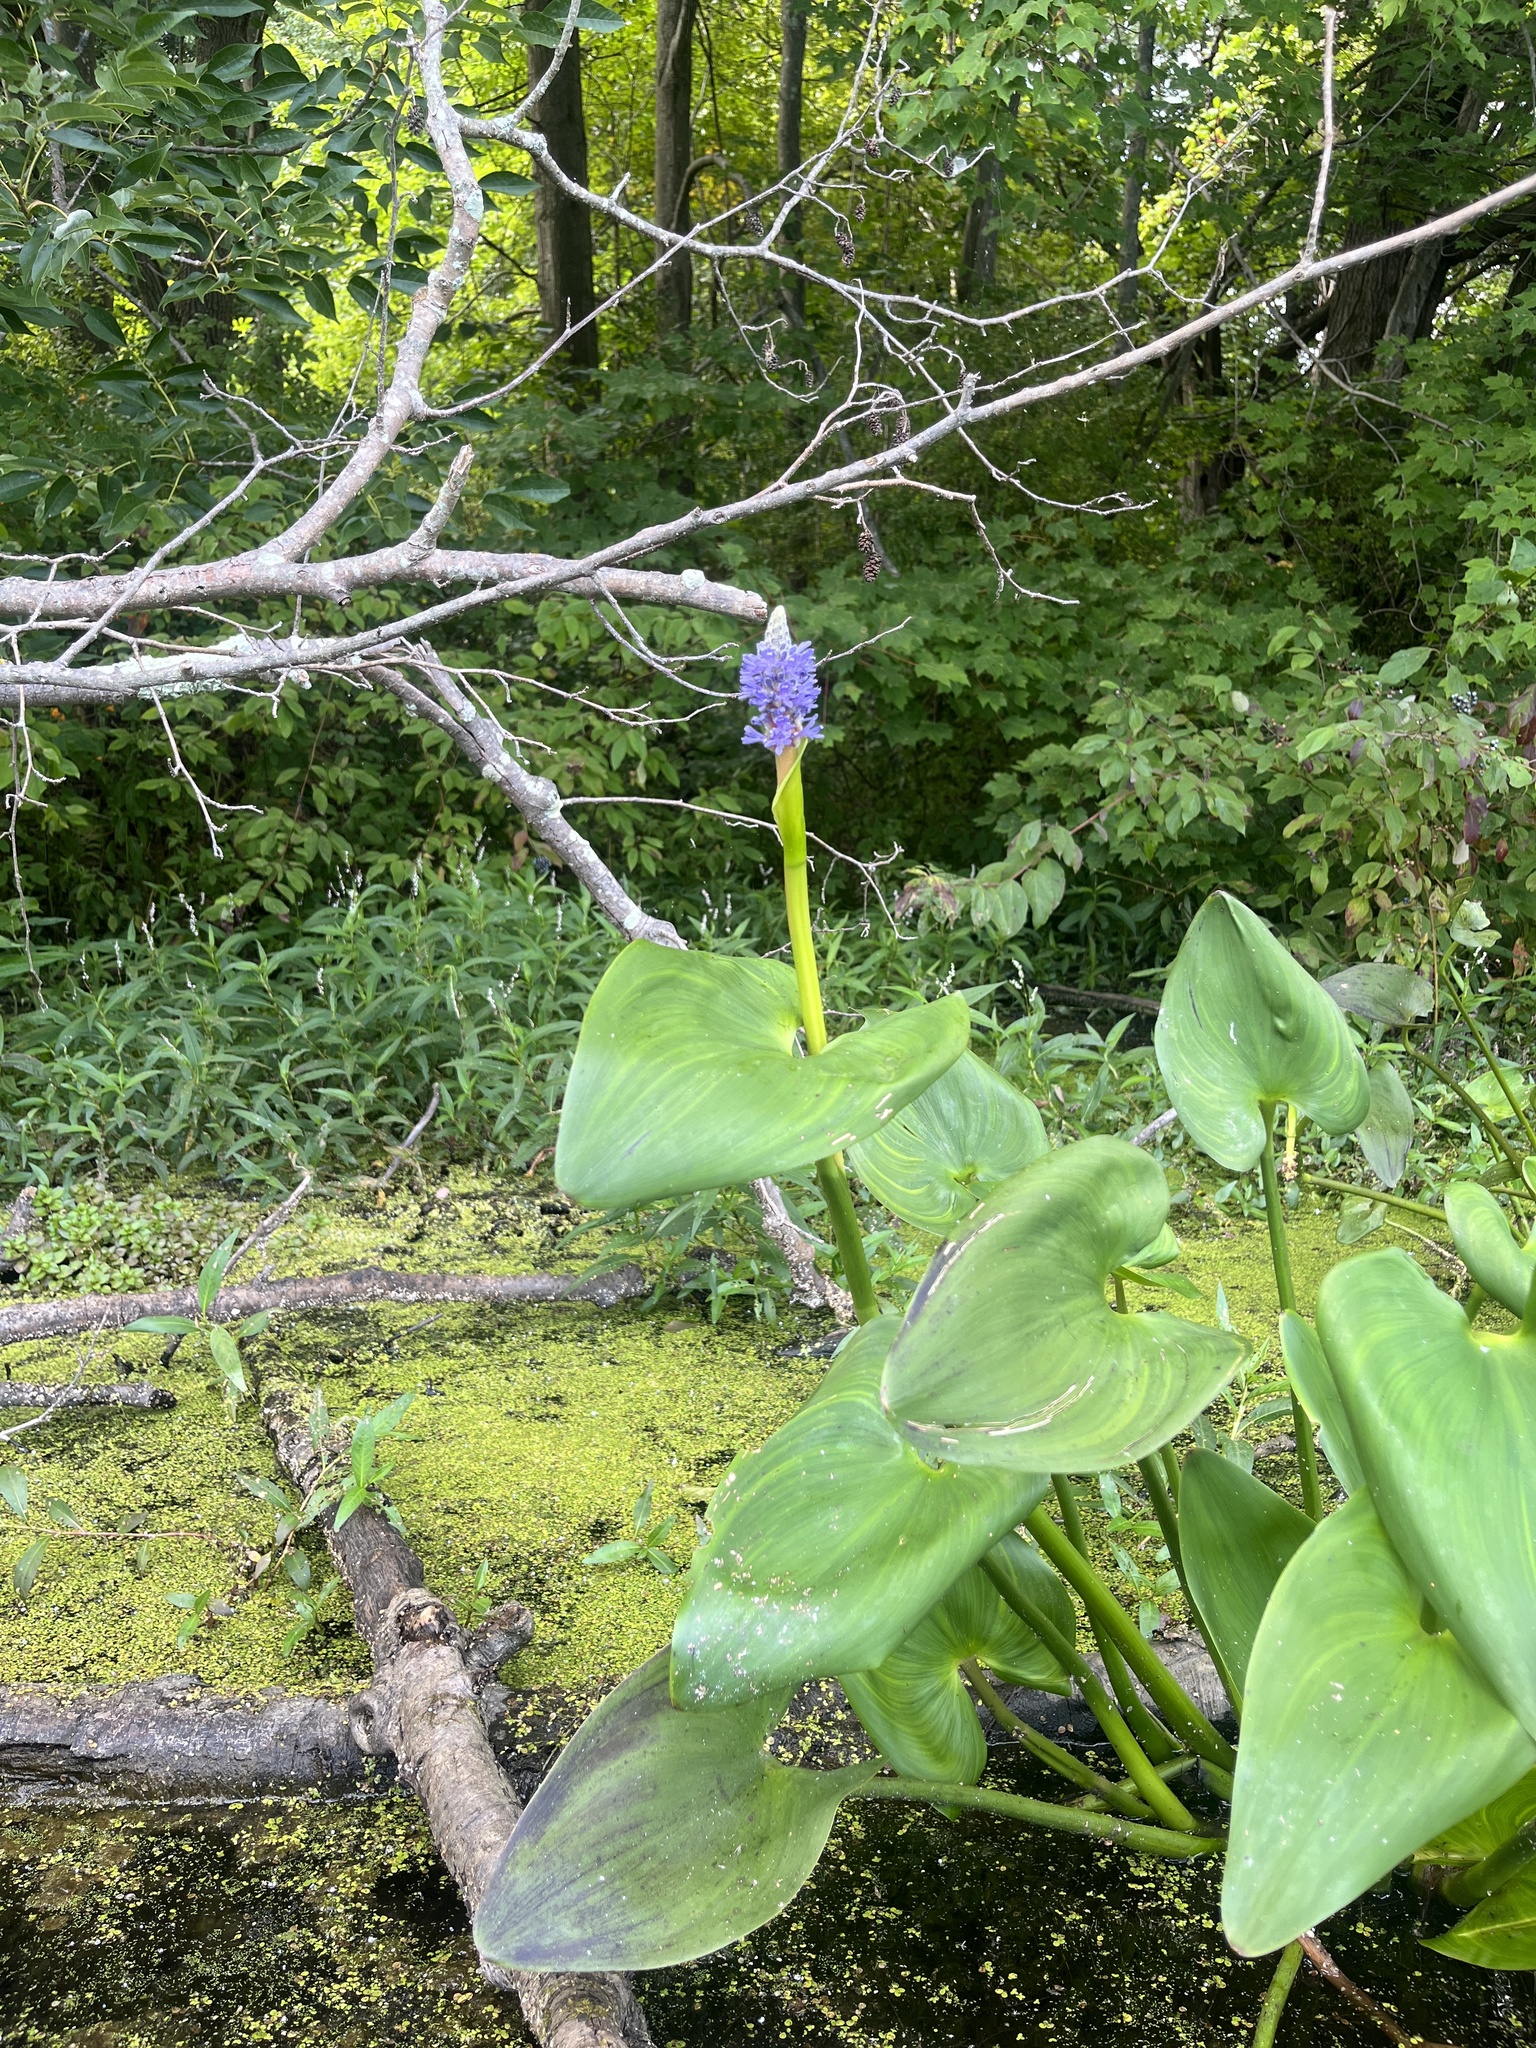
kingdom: Plantae
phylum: Tracheophyta
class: Liliopsida
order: Commelinales
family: Pontederiaceae
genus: Pontederia
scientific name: Pontederia cordata
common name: Pickerelweed
